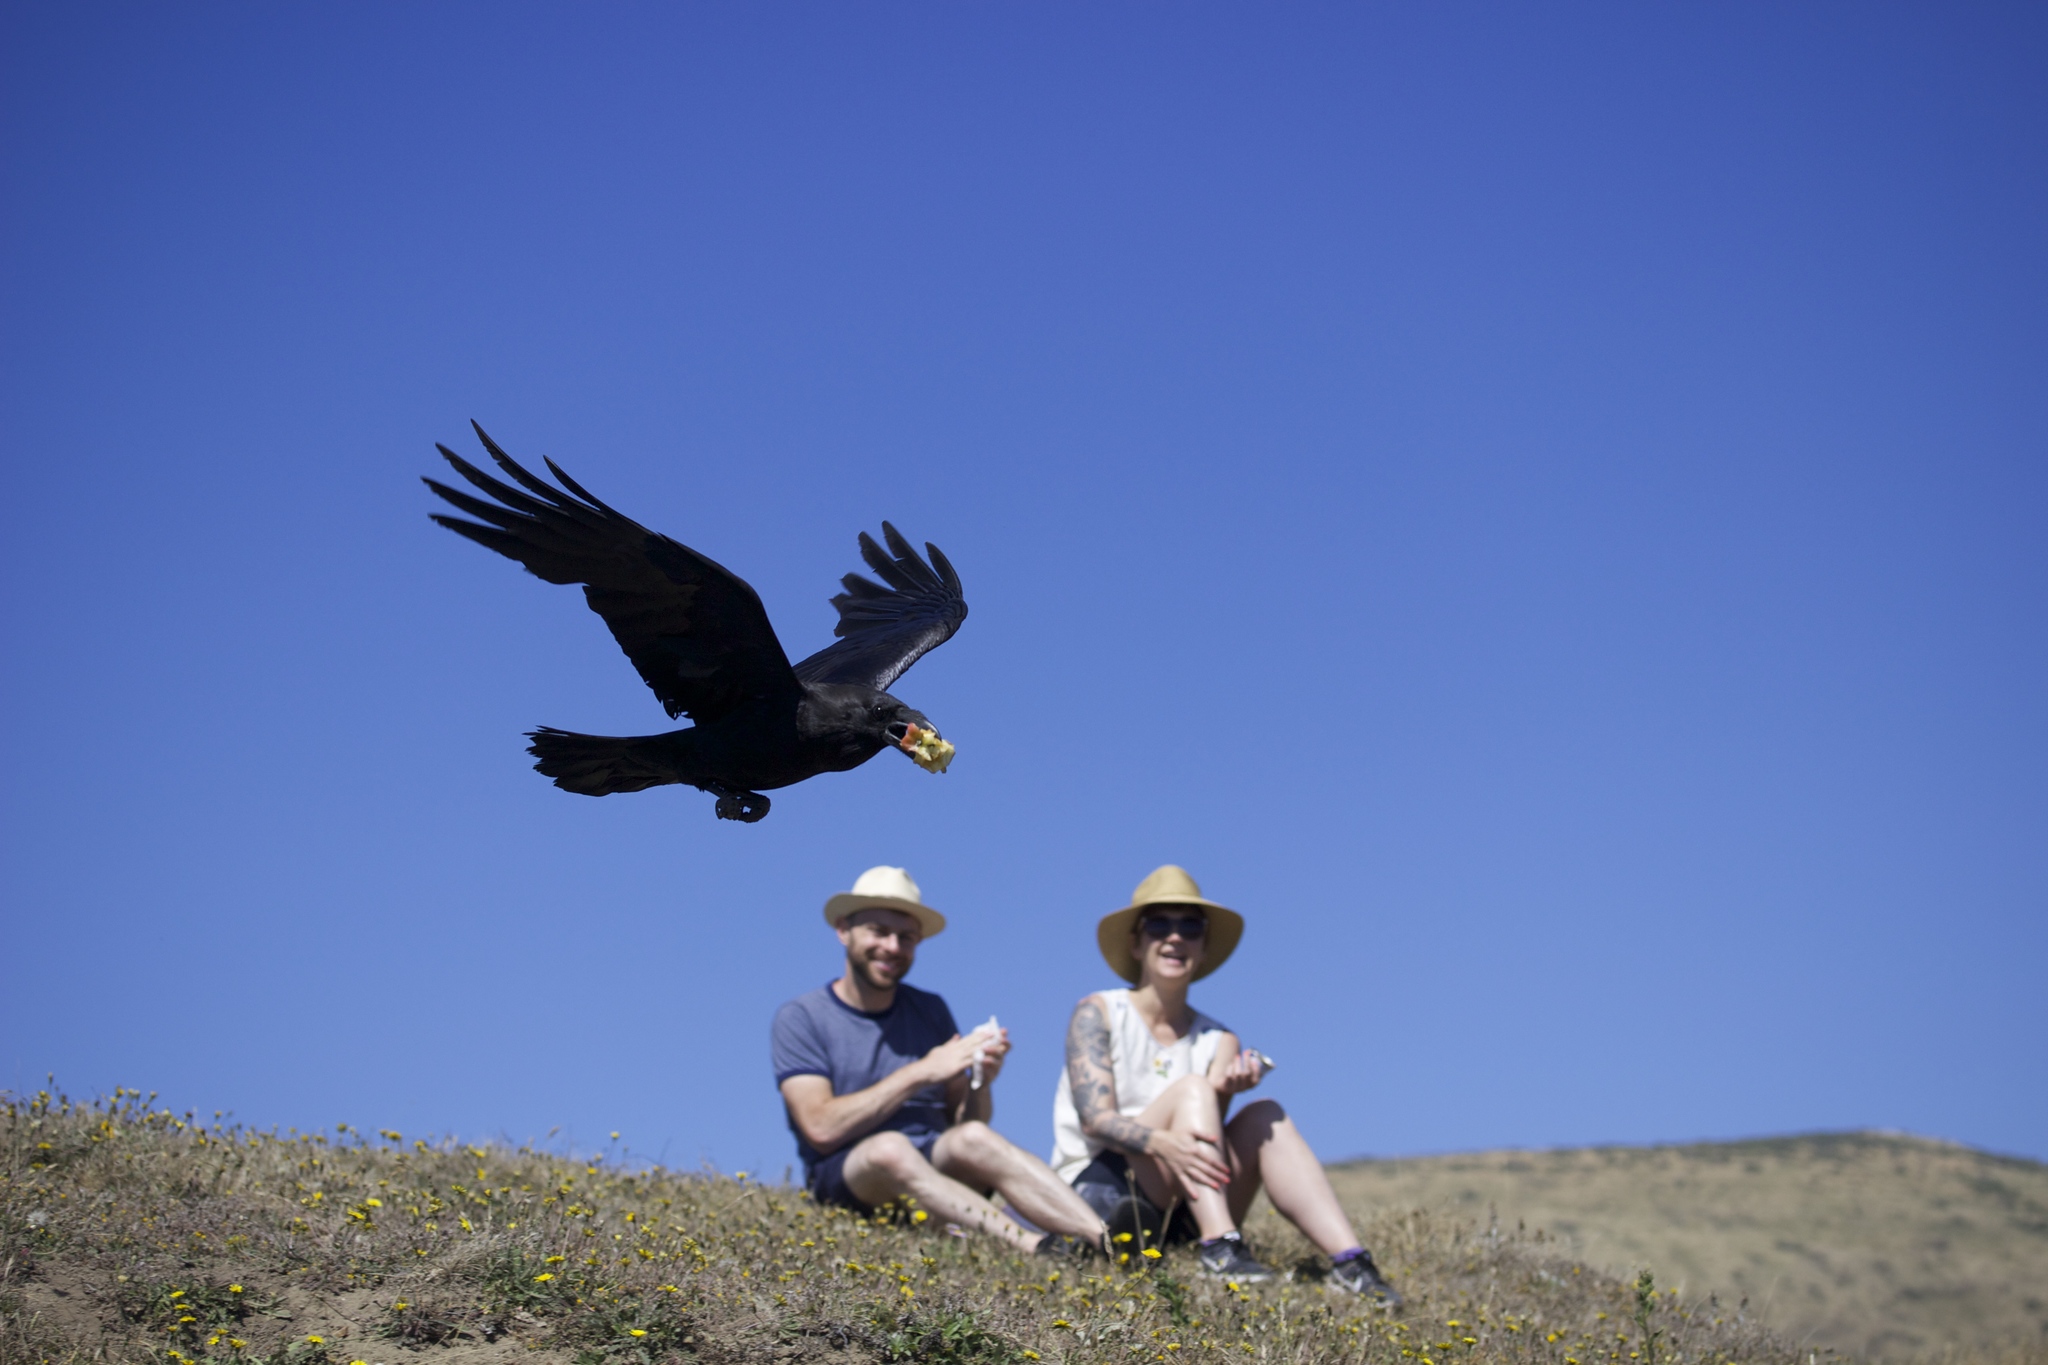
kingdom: Animalia
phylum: Chordata
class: Aves
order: Passeriformes
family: Corvidae
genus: Corvus
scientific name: Corvus corax
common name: Common raven
